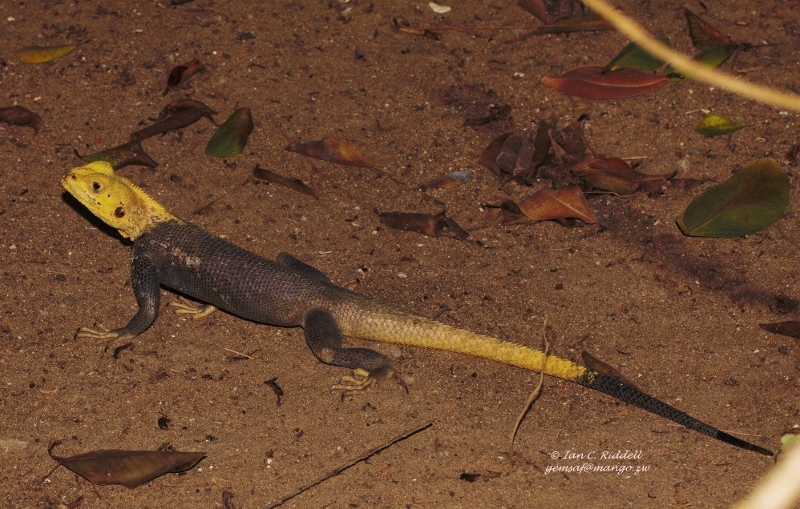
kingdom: Animalia
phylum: Chordata
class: Squamata
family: Agamidae
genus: Agama
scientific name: Agama agama
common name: Common agama
